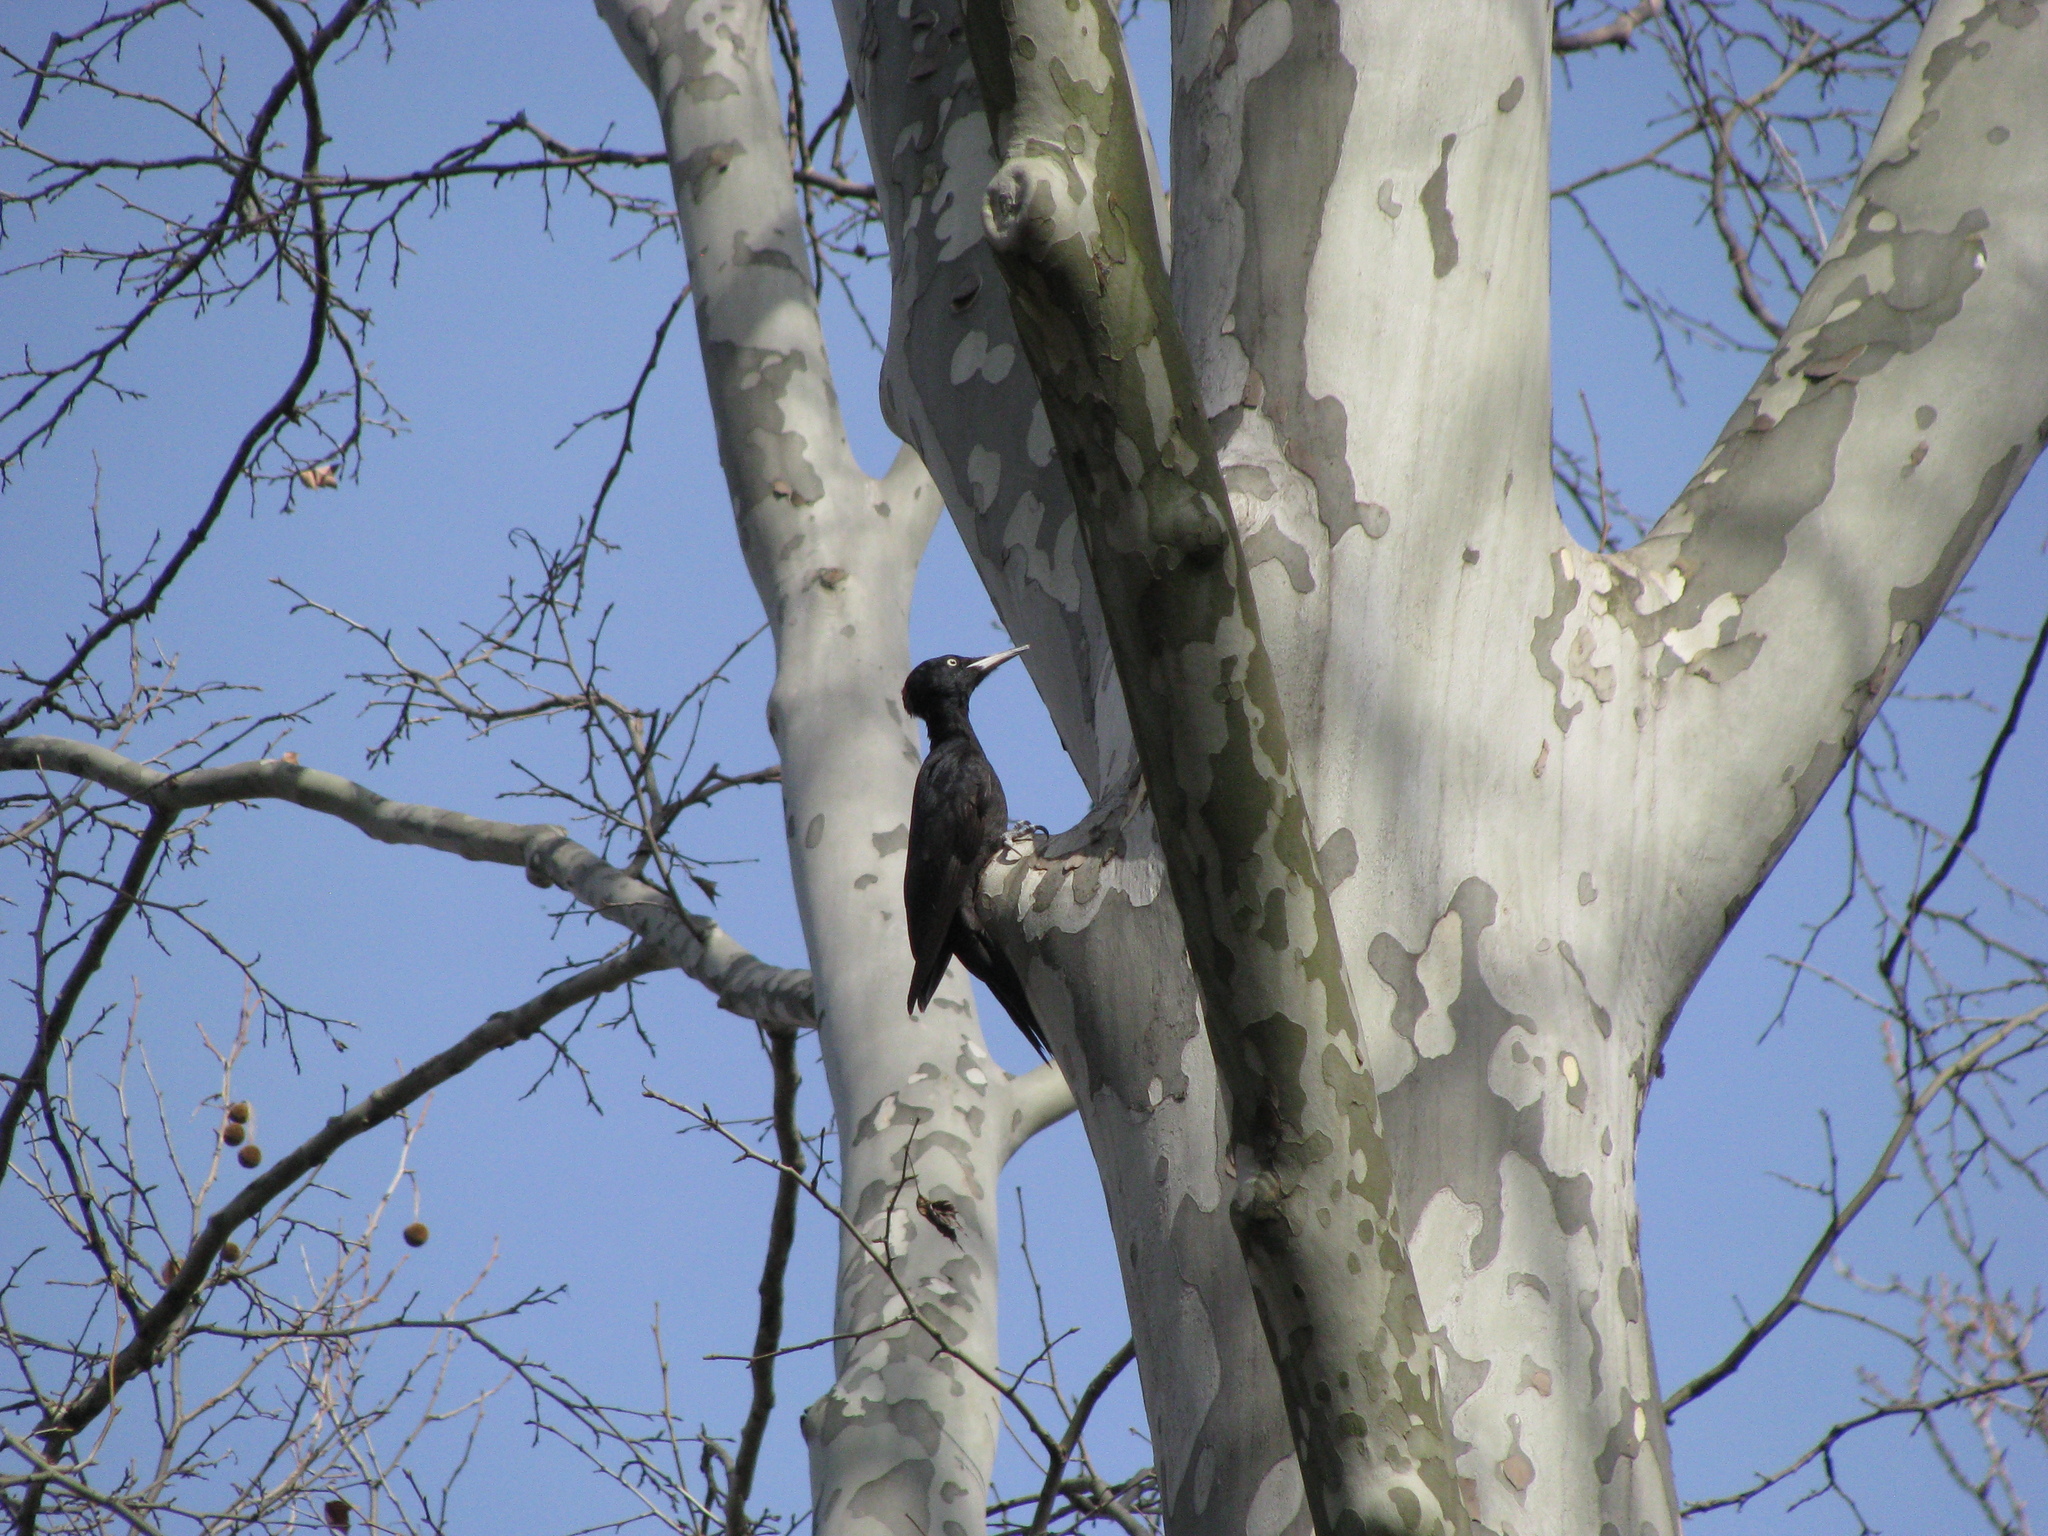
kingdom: Animalia
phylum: Chordata
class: Aves
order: Piciformes
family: Picidae
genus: Dryocopus
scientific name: Dryocopus martius
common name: Black woodpecker
